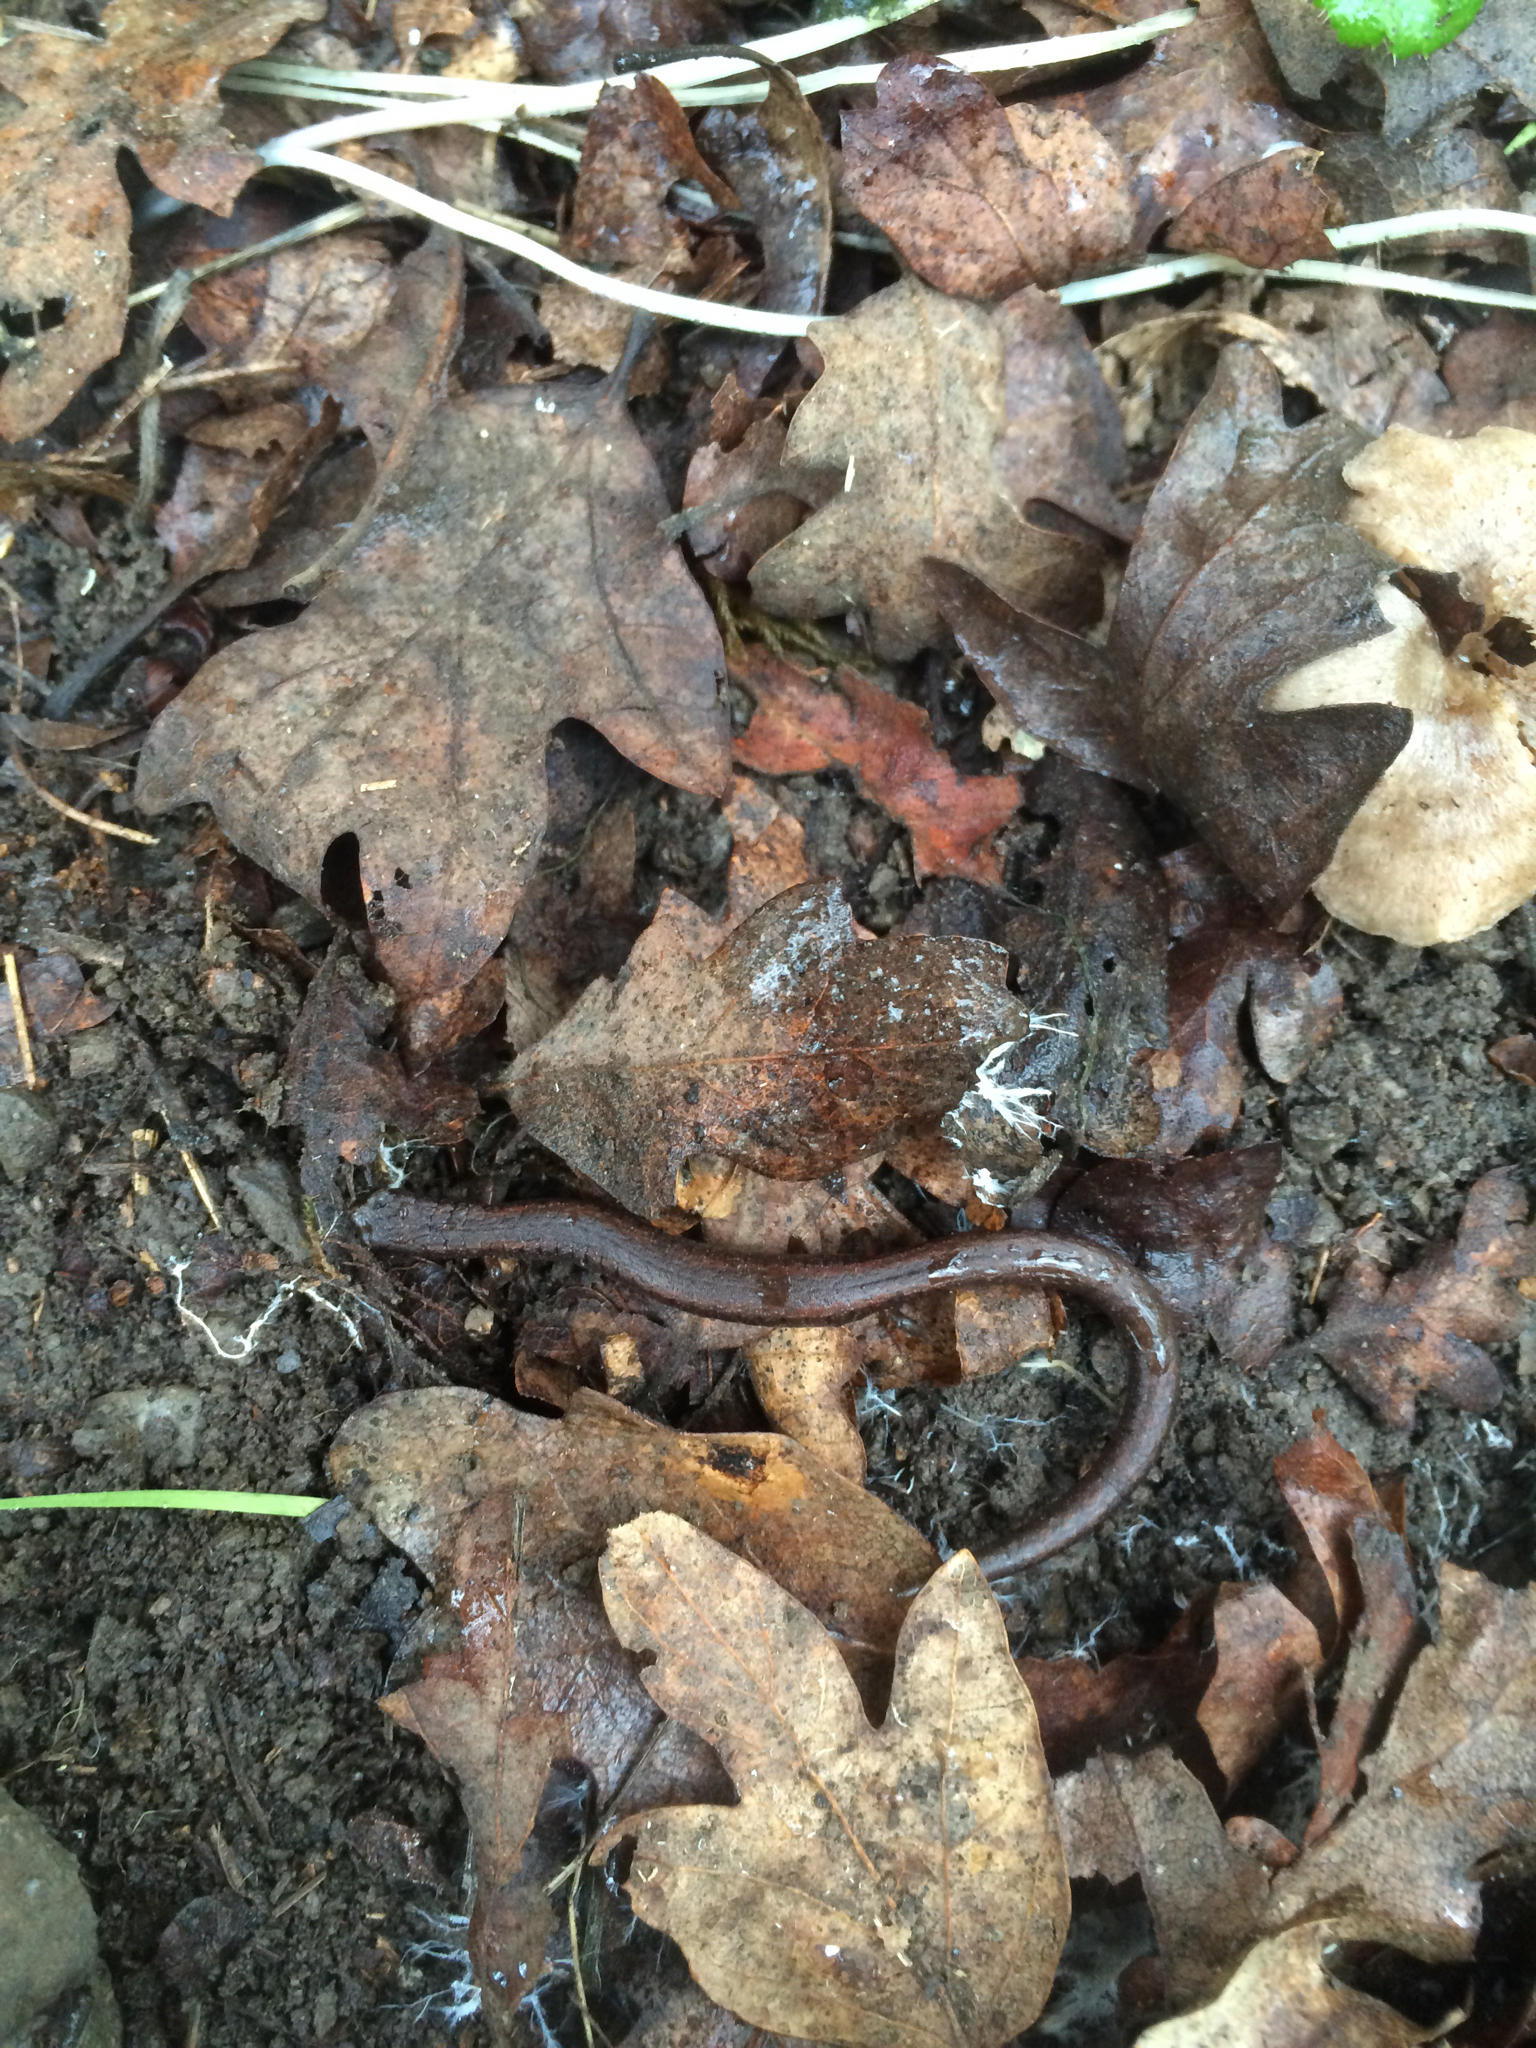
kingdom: Animalia
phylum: Chordata
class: Amphibia
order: Caudata
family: Plethodontidae
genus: Batrachoseps
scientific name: Batrachoseps attenuatus
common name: California slender salamander
